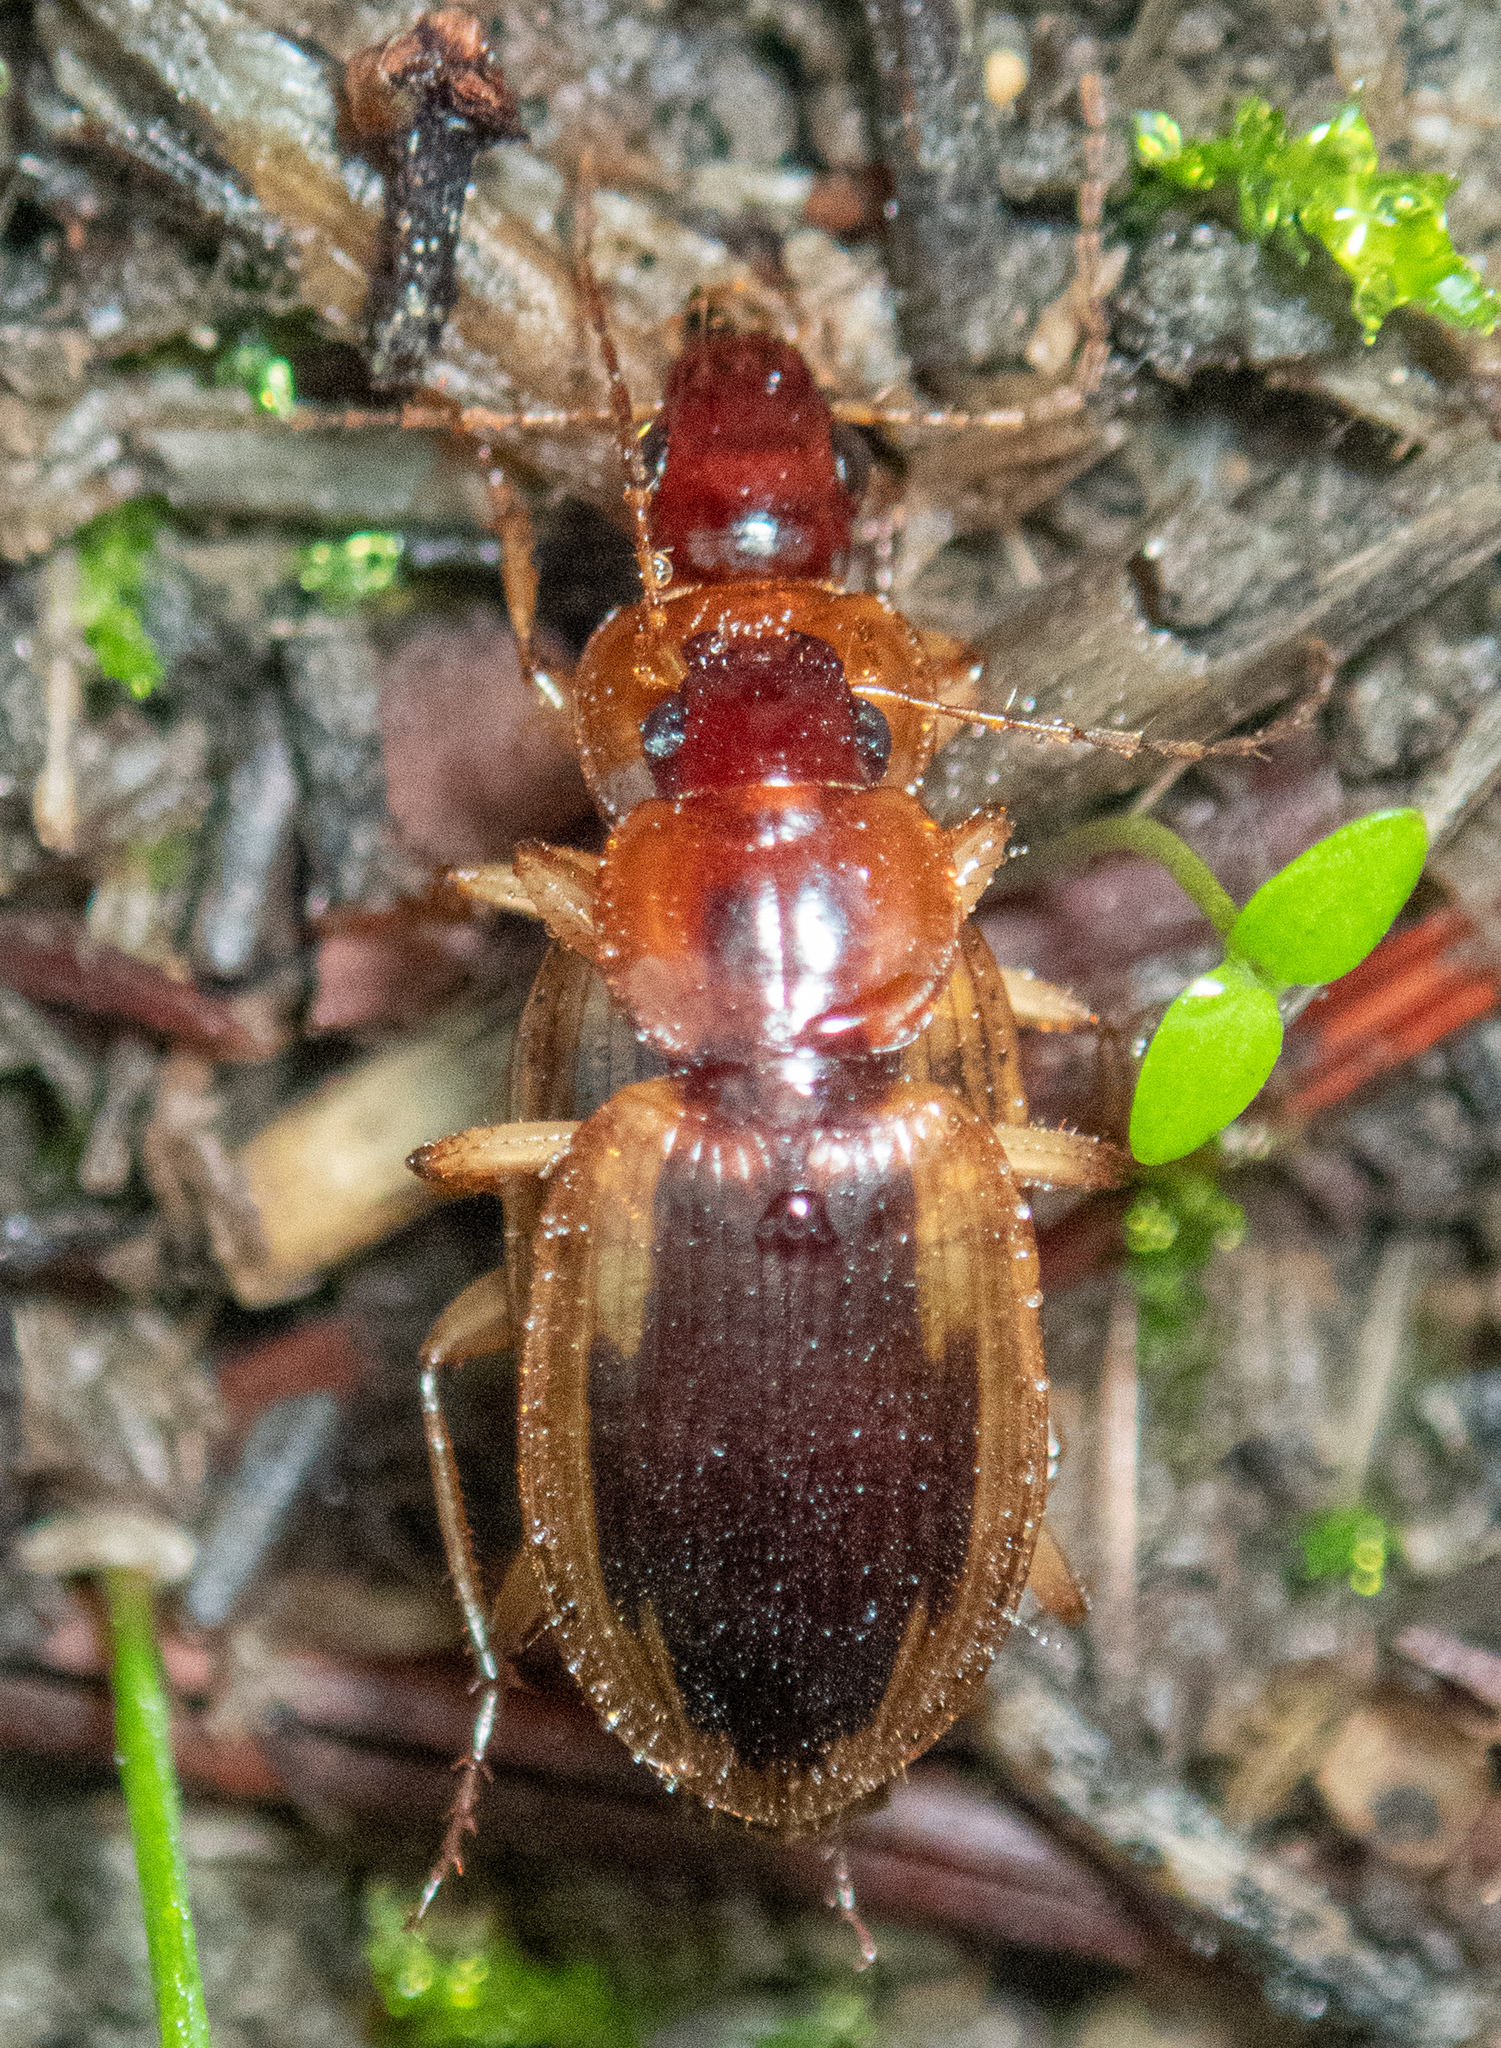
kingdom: Animalia
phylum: Arthropoda
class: Insecta
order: Coleoptera
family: Carabidae
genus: Tanystoma
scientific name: Tanystoma maculicolle
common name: Tule beetle
